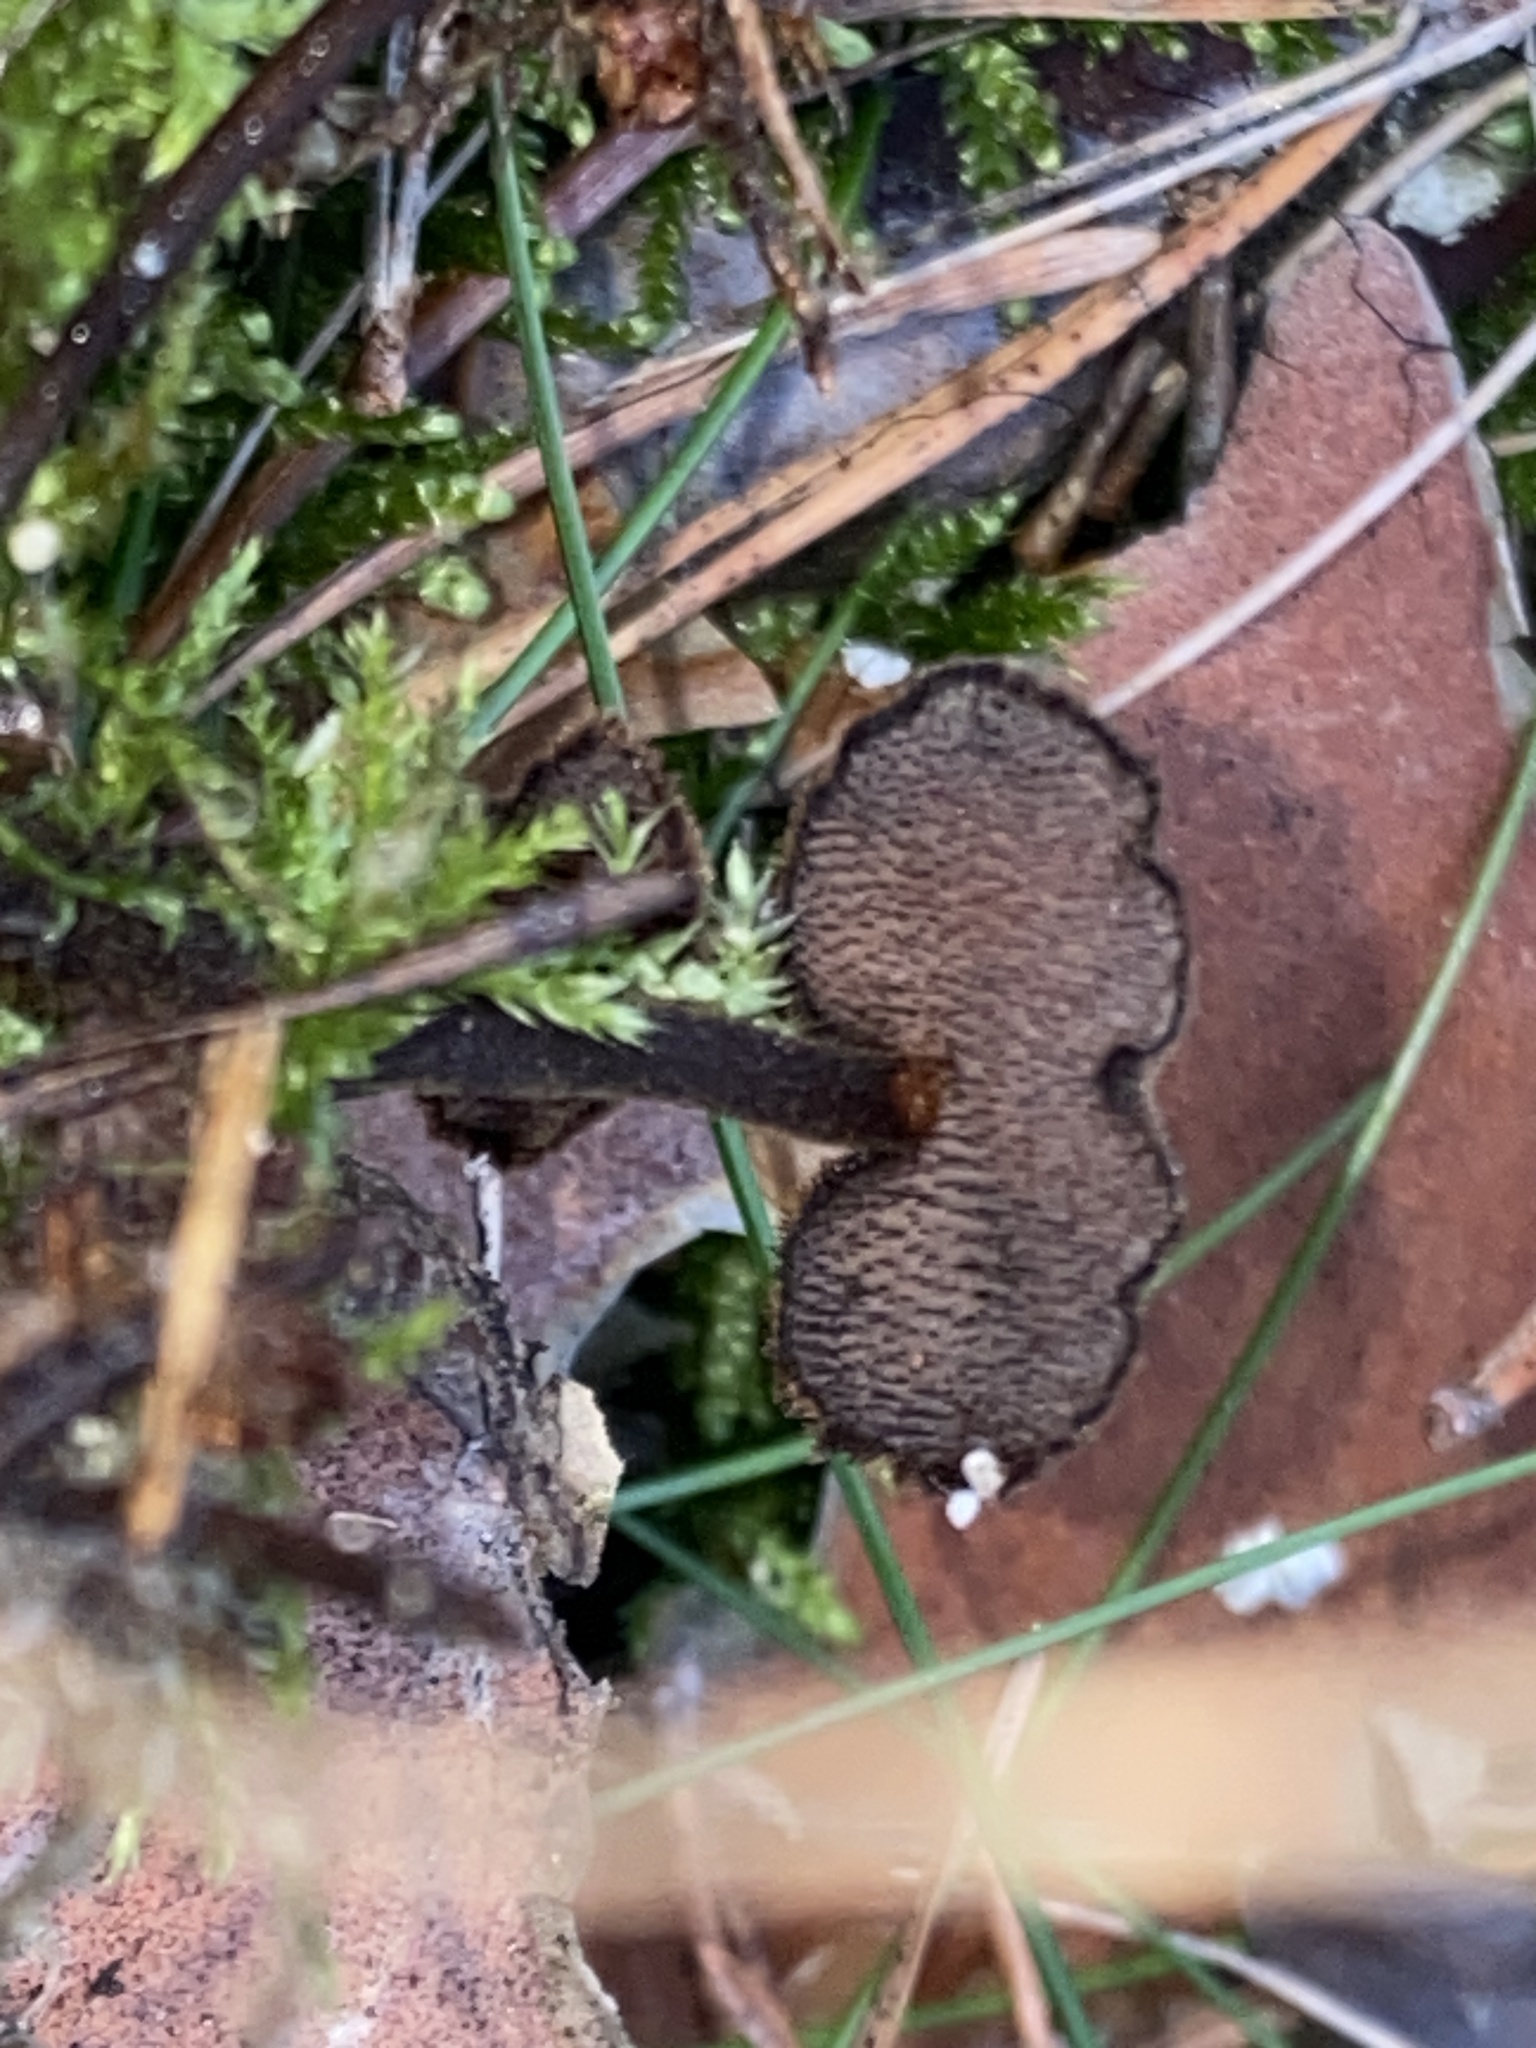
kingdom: Fungi
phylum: Basidiomycota
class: Agaricomycetes
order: Russulales
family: Auriscalpiaceae
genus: Auriscalpium
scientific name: Auriscalpium vulgare
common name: Earpick fungus
